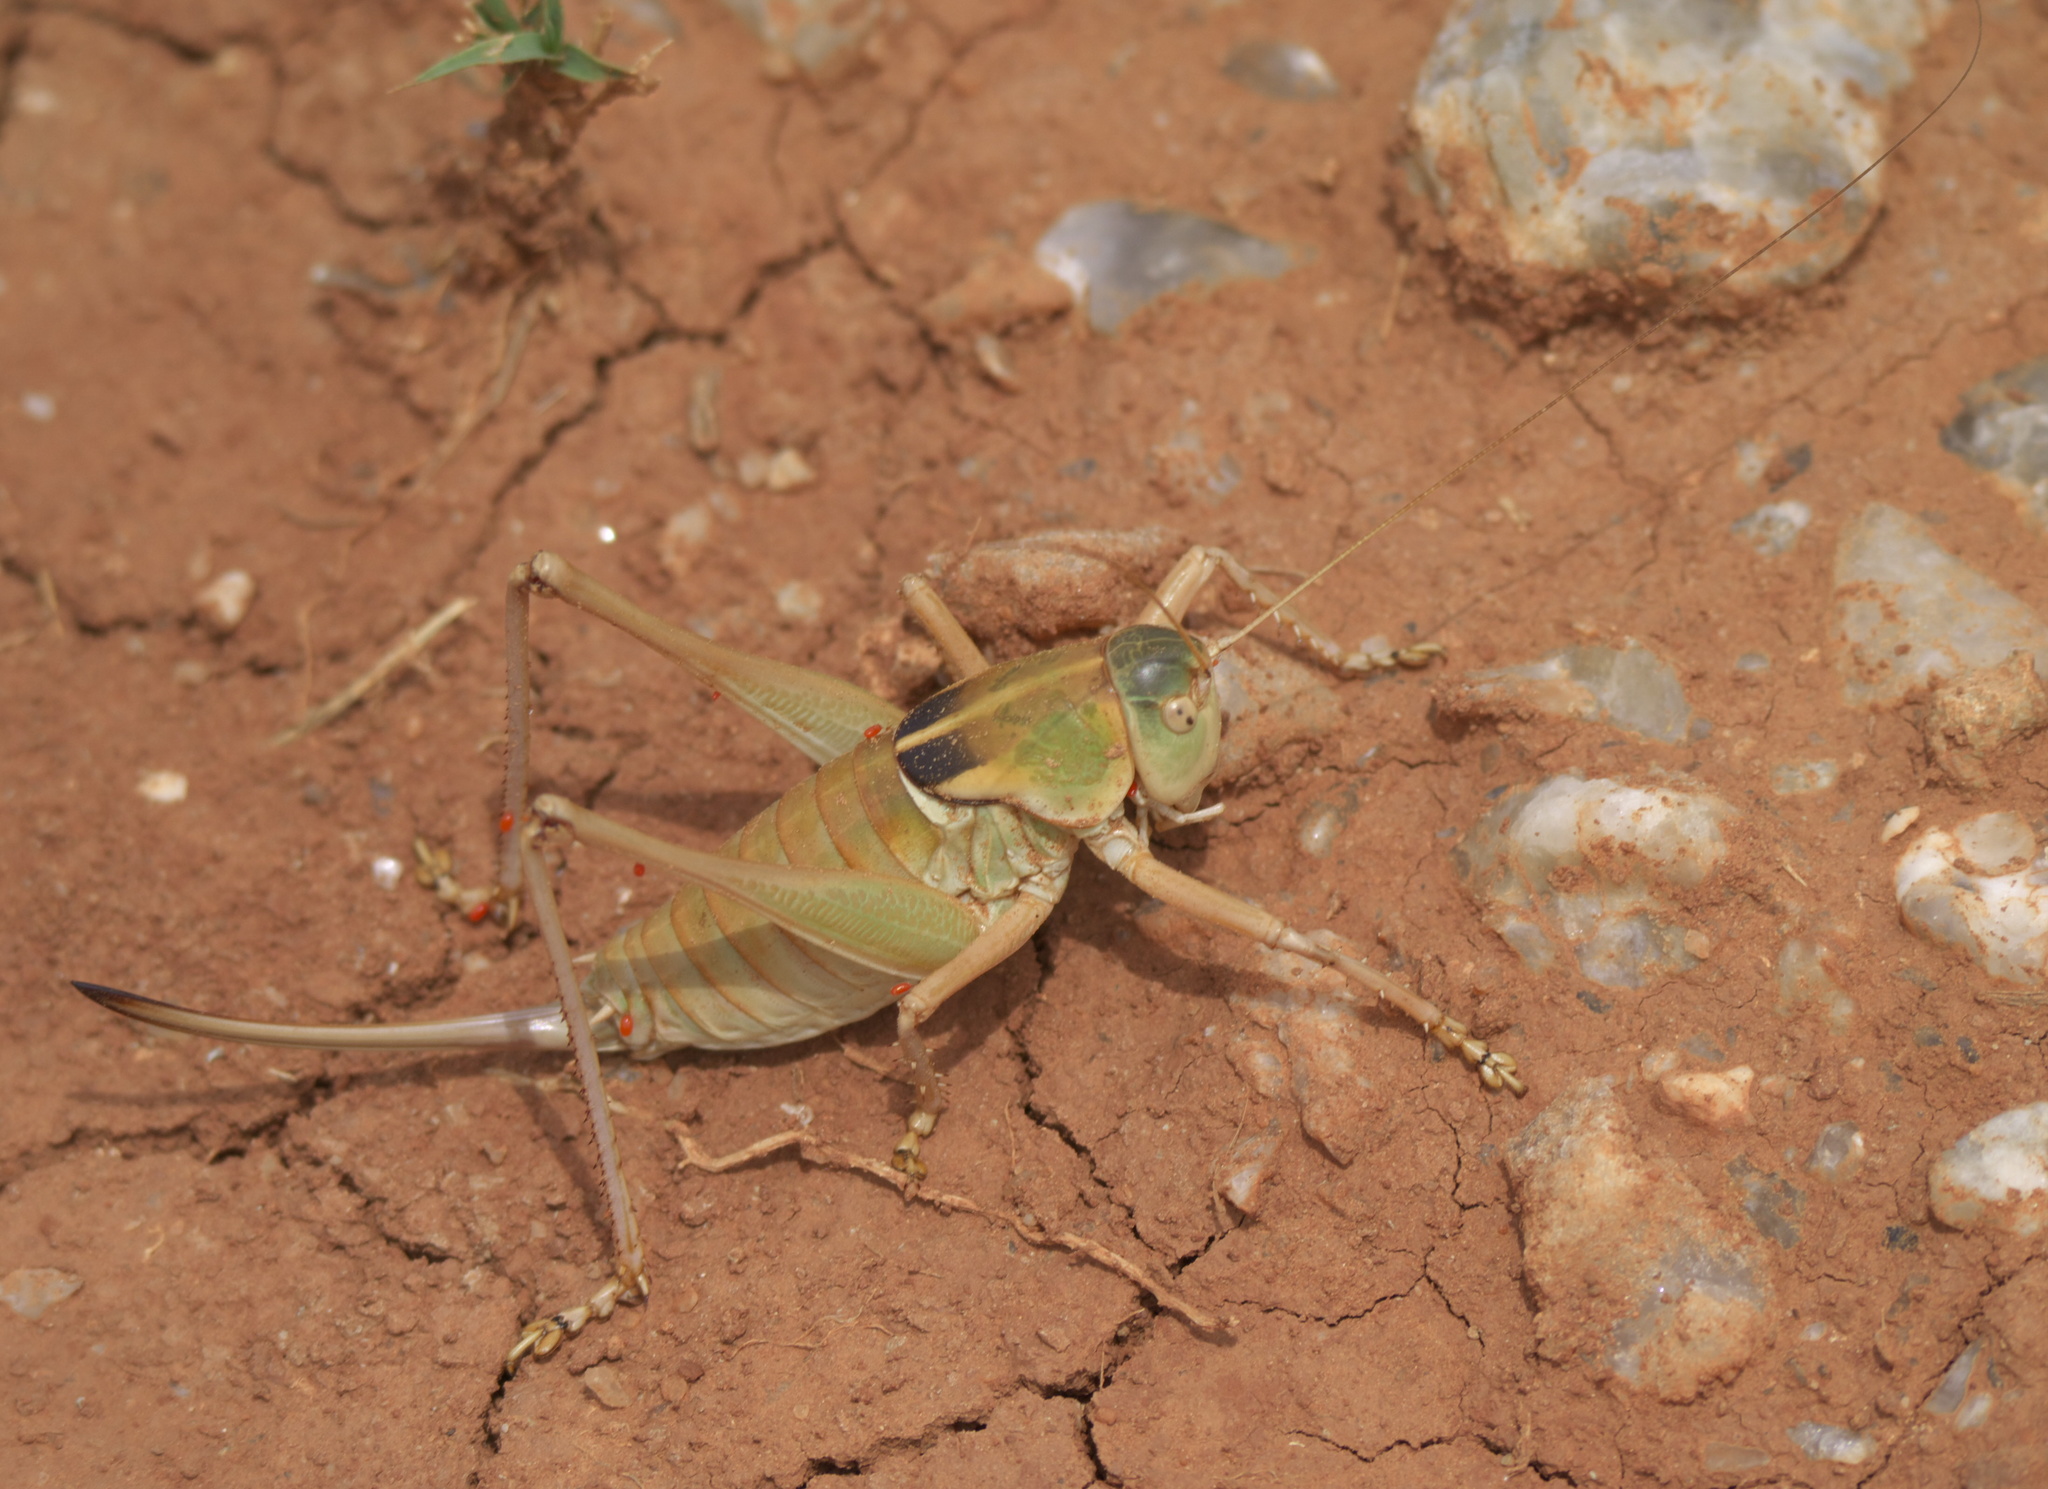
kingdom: Animalia
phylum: Arthropoda
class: Insecta
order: Orthoptera
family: Tettigoniidae
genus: Pediodectes
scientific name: Pediodectes haldemanii
